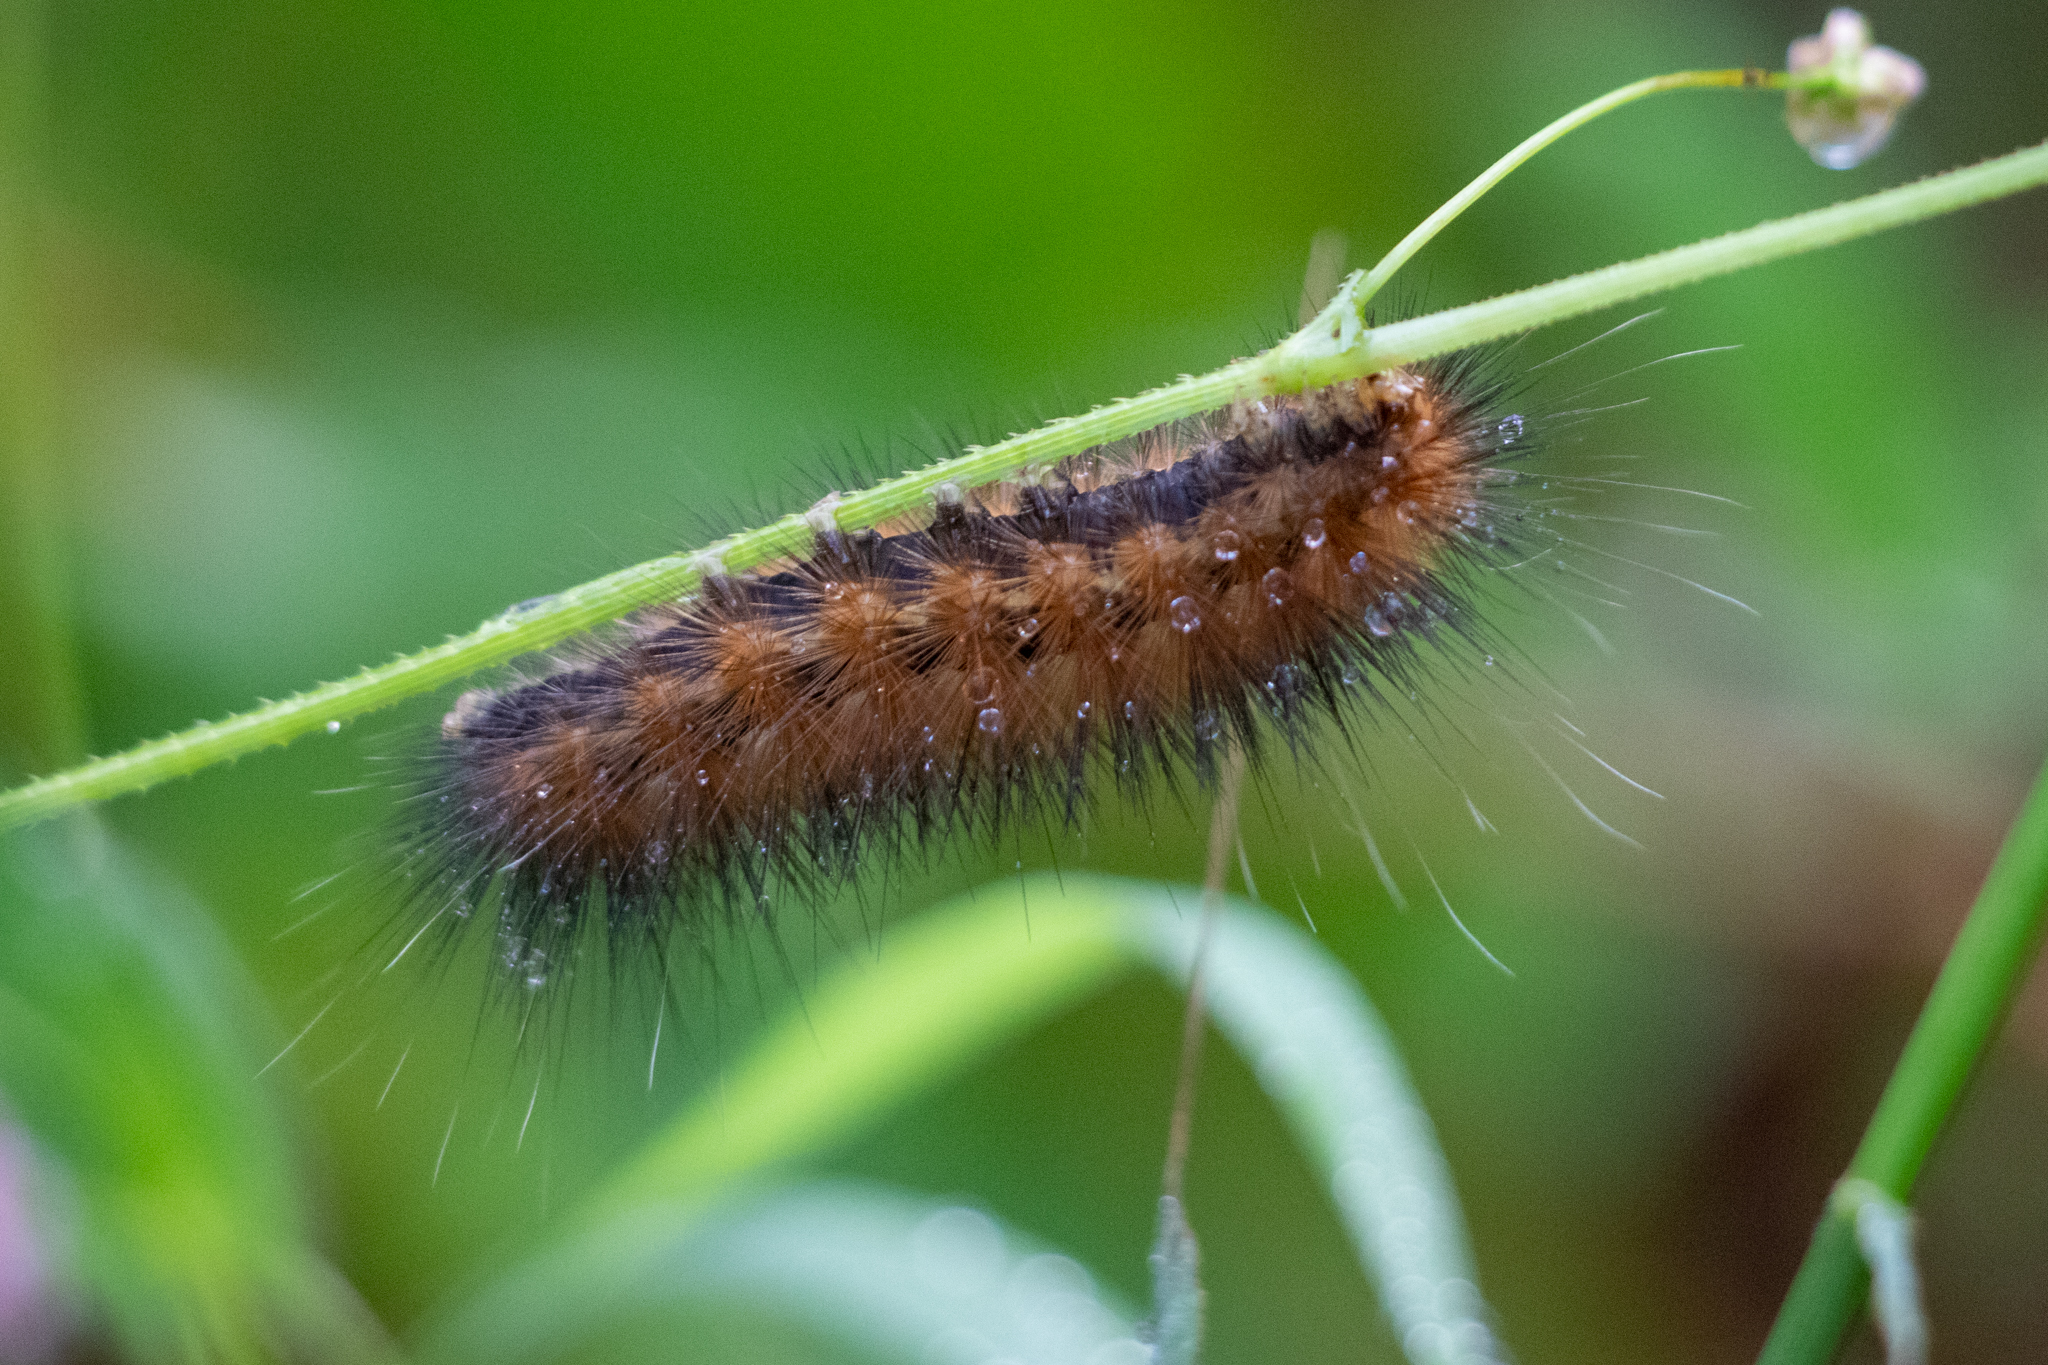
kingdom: Animalia
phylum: Arthropoda
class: Insecta
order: Lepidoptera
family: Erebidae
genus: Spilosoma
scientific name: Spilosoma virginica
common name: Virginia tiger moth
